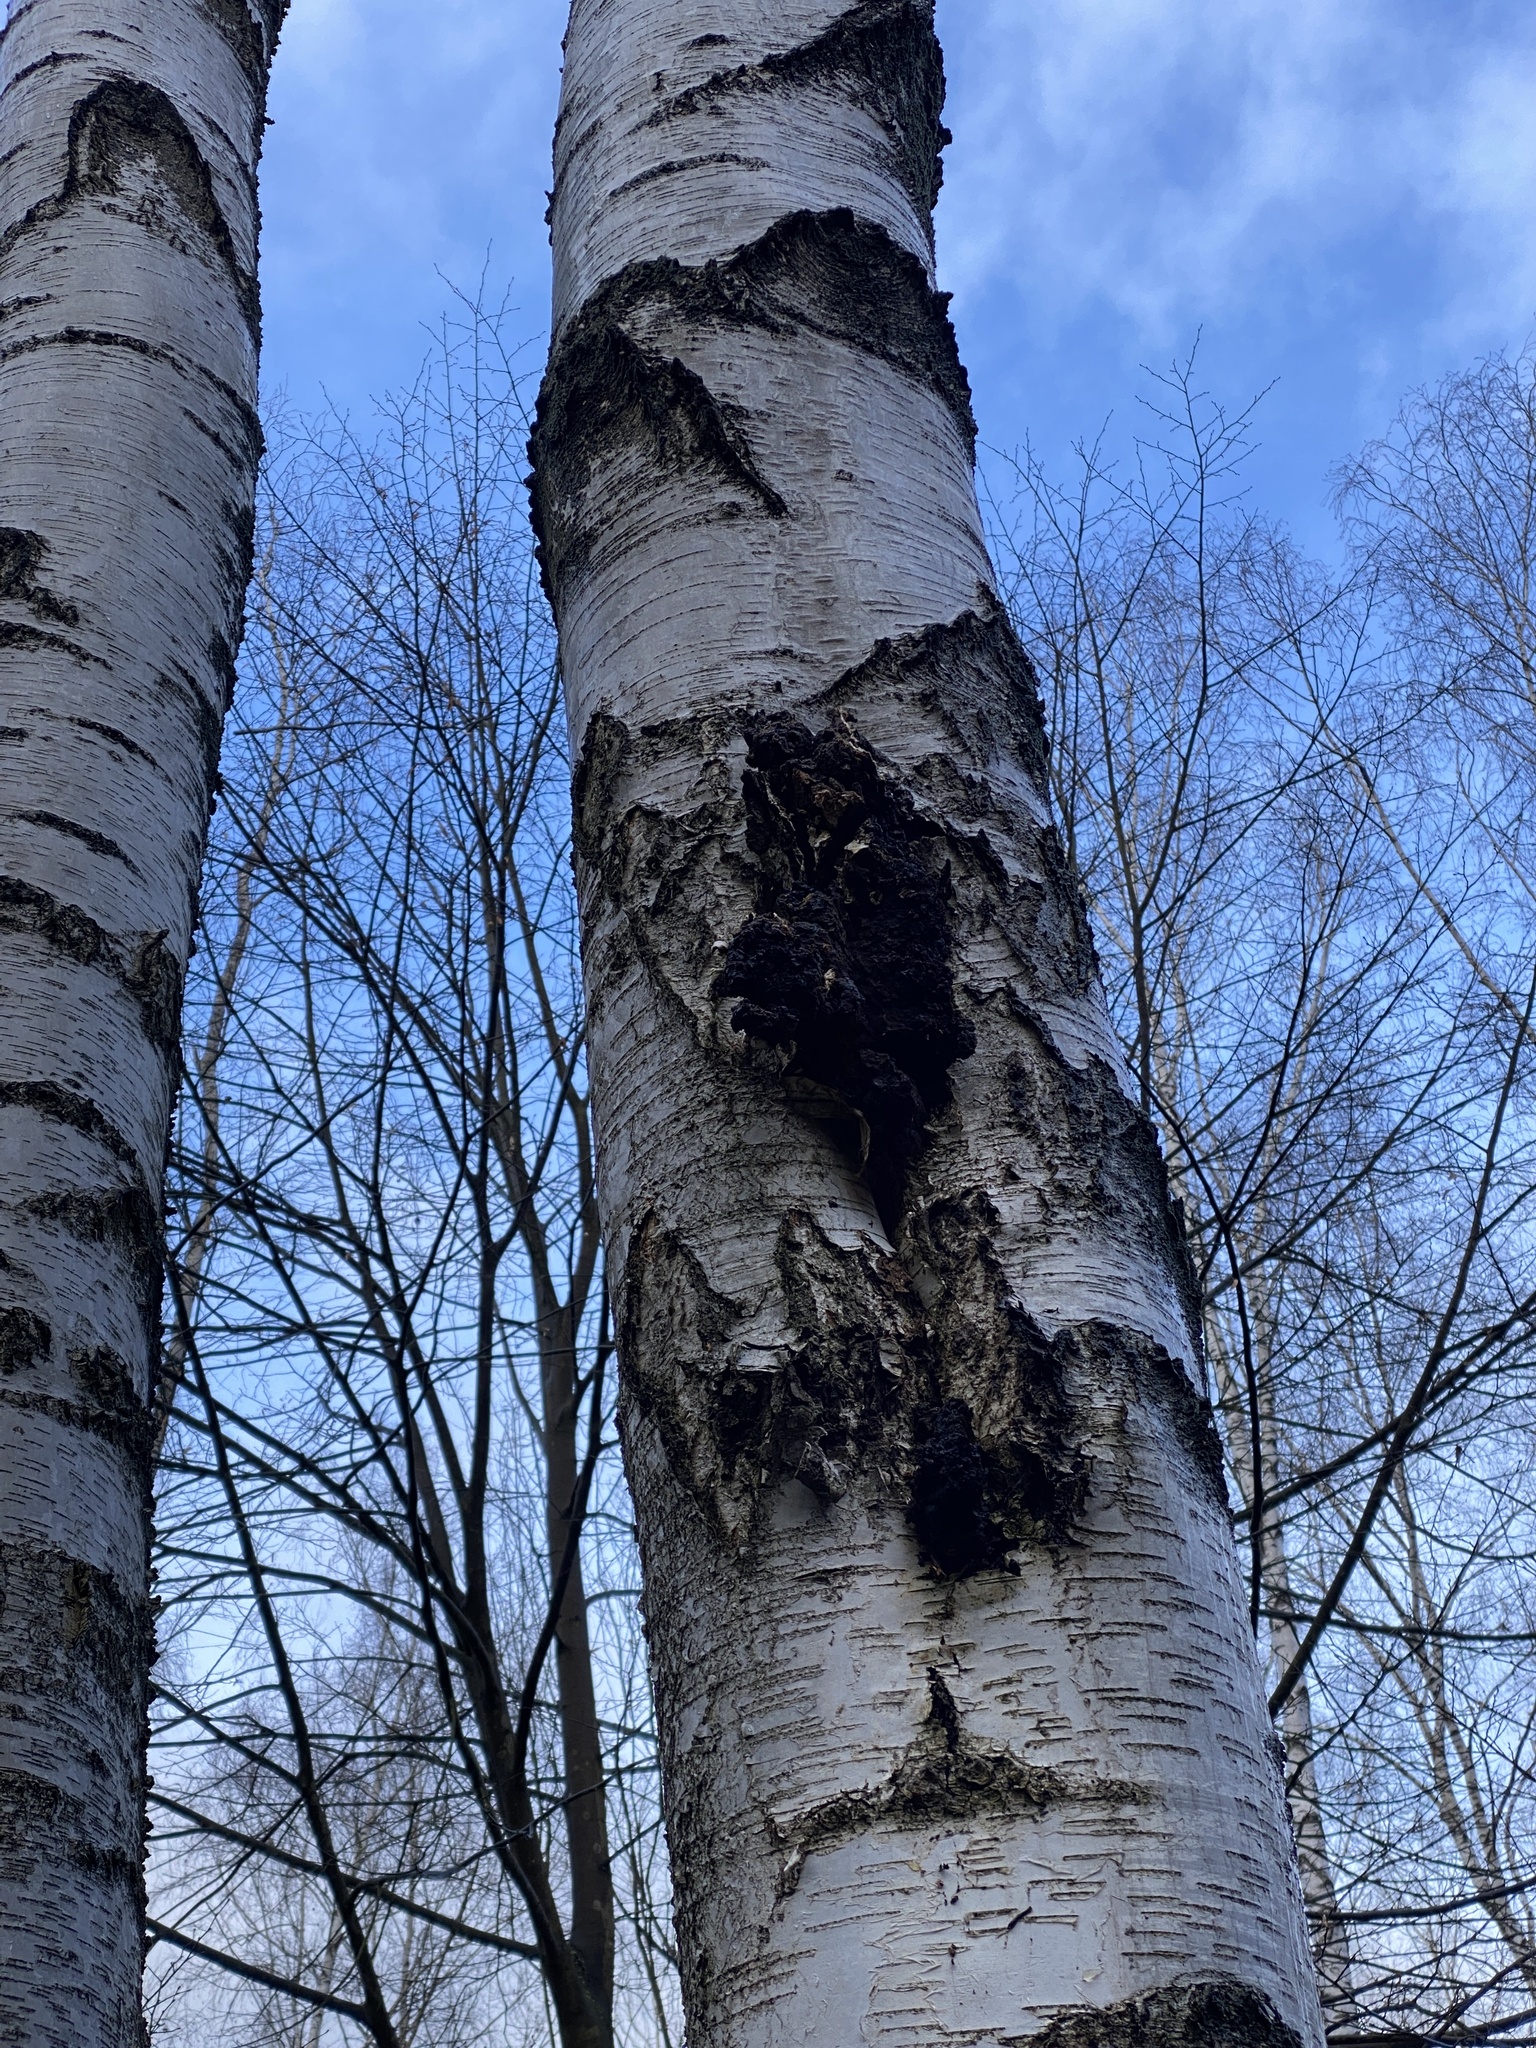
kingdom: Fungi
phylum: Basidiomycota
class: Agaricomycetes
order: Hymenochaetales
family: Hymenochaetaceae
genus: Inonotus
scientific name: Inonotus obliquus
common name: Chaga
